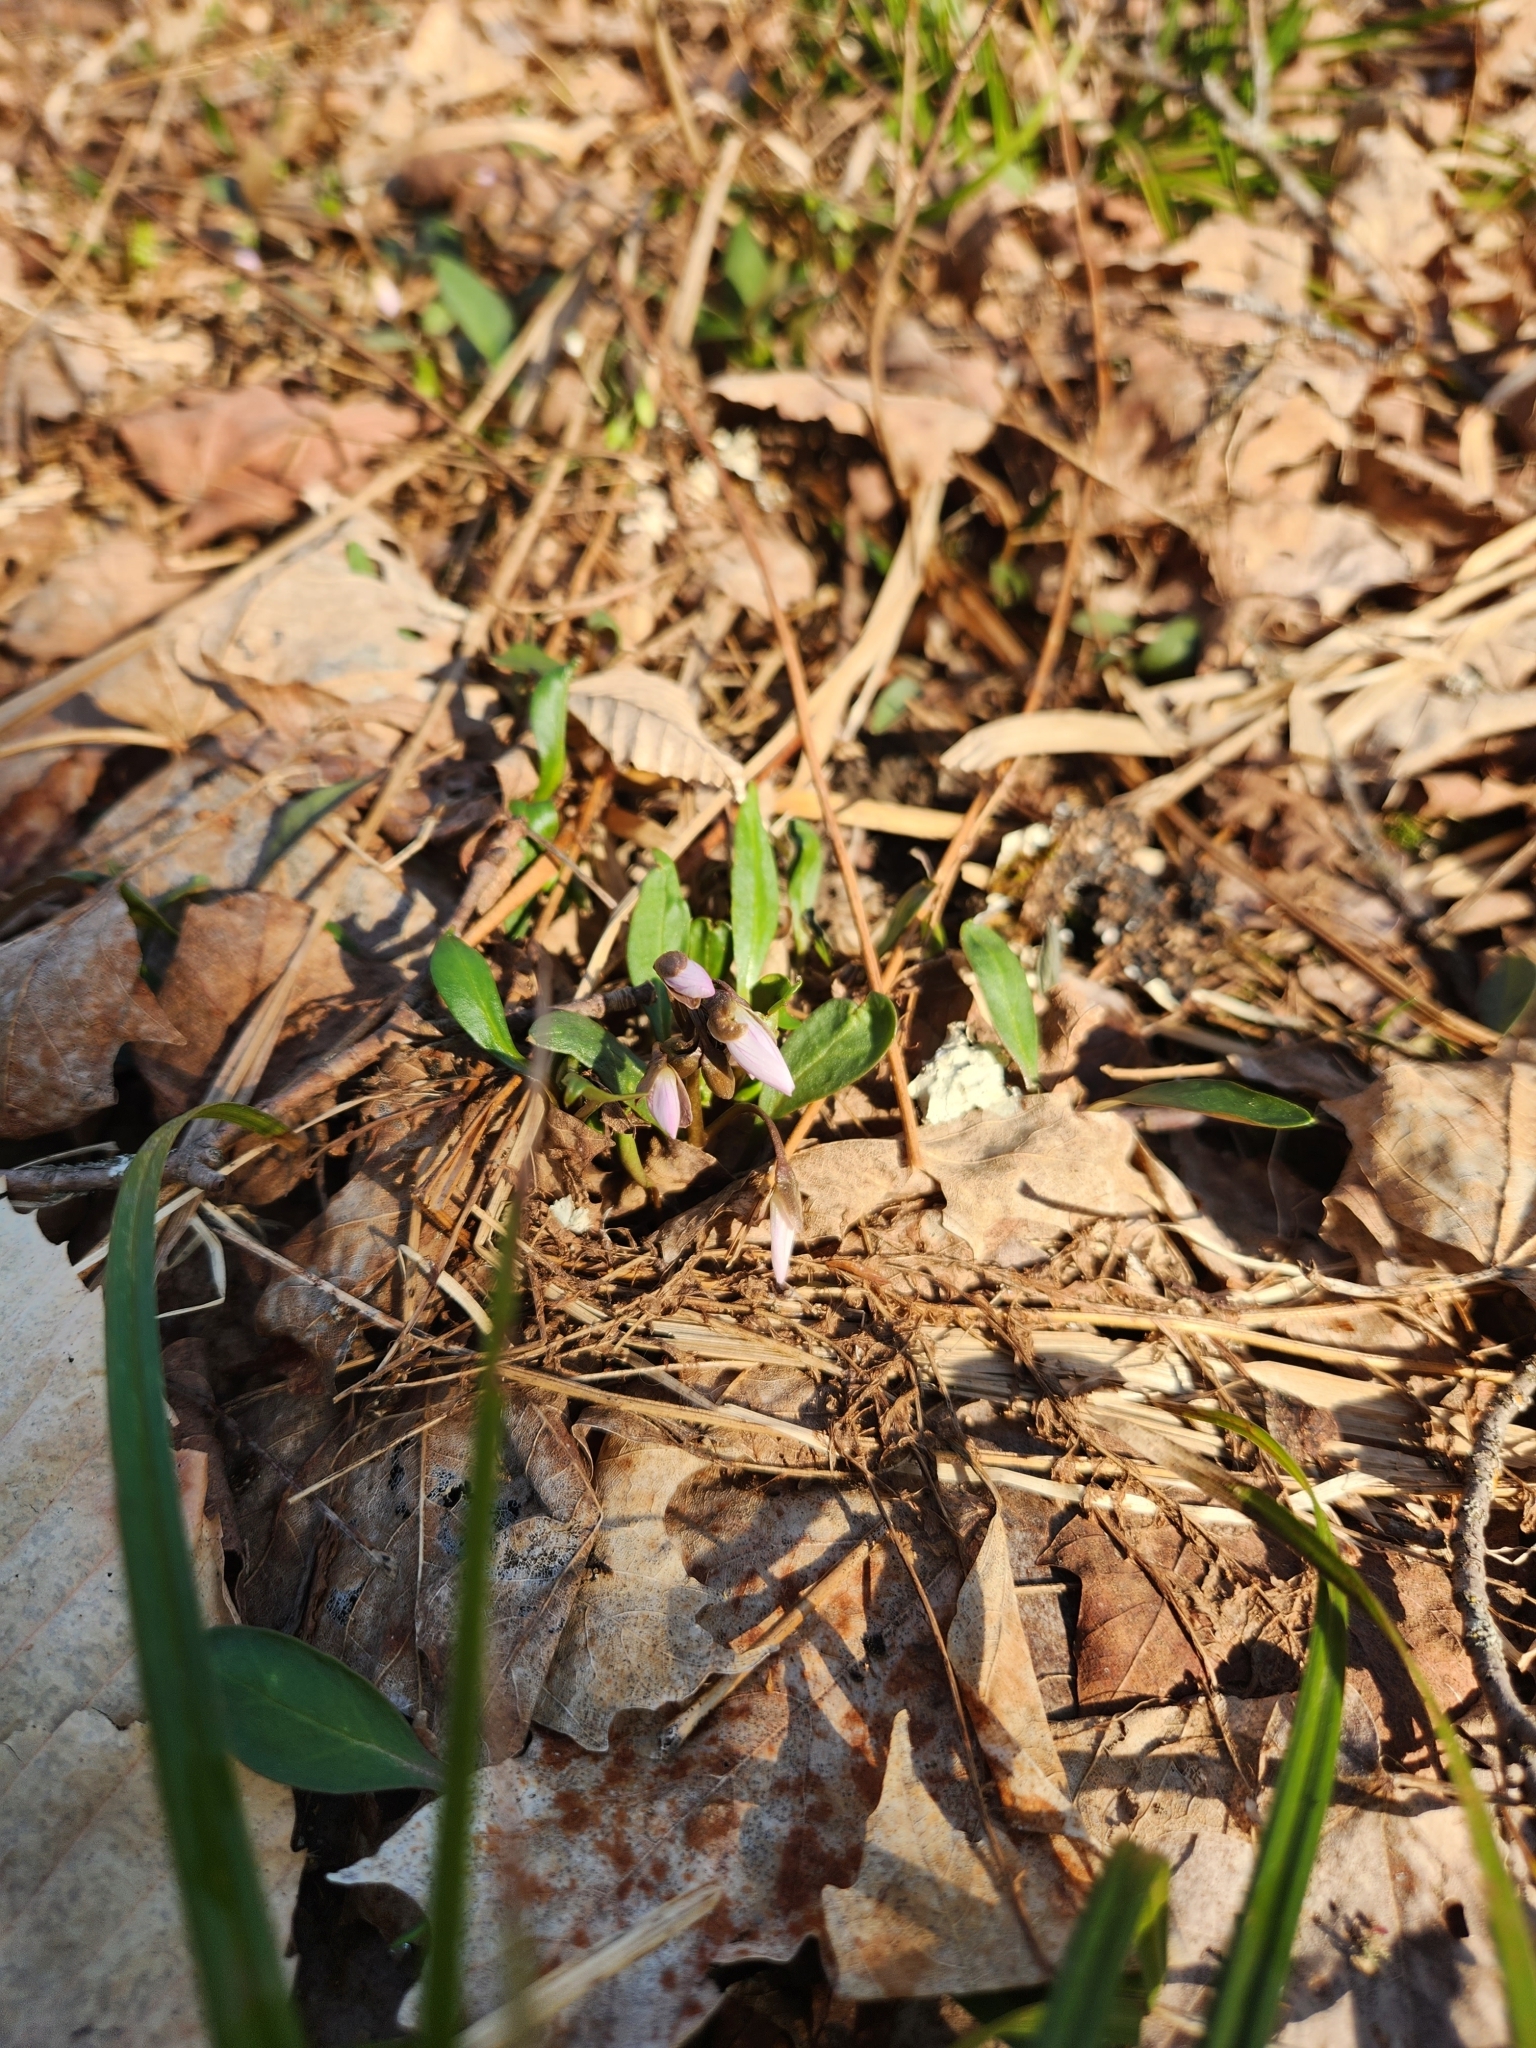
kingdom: Plantae
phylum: Tracheophyta
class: Magnoliopsida
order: Caryophyllales
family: Montiaceae
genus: Claytonia
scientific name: Claytonia caroliniana
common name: Carolina spring beauty
